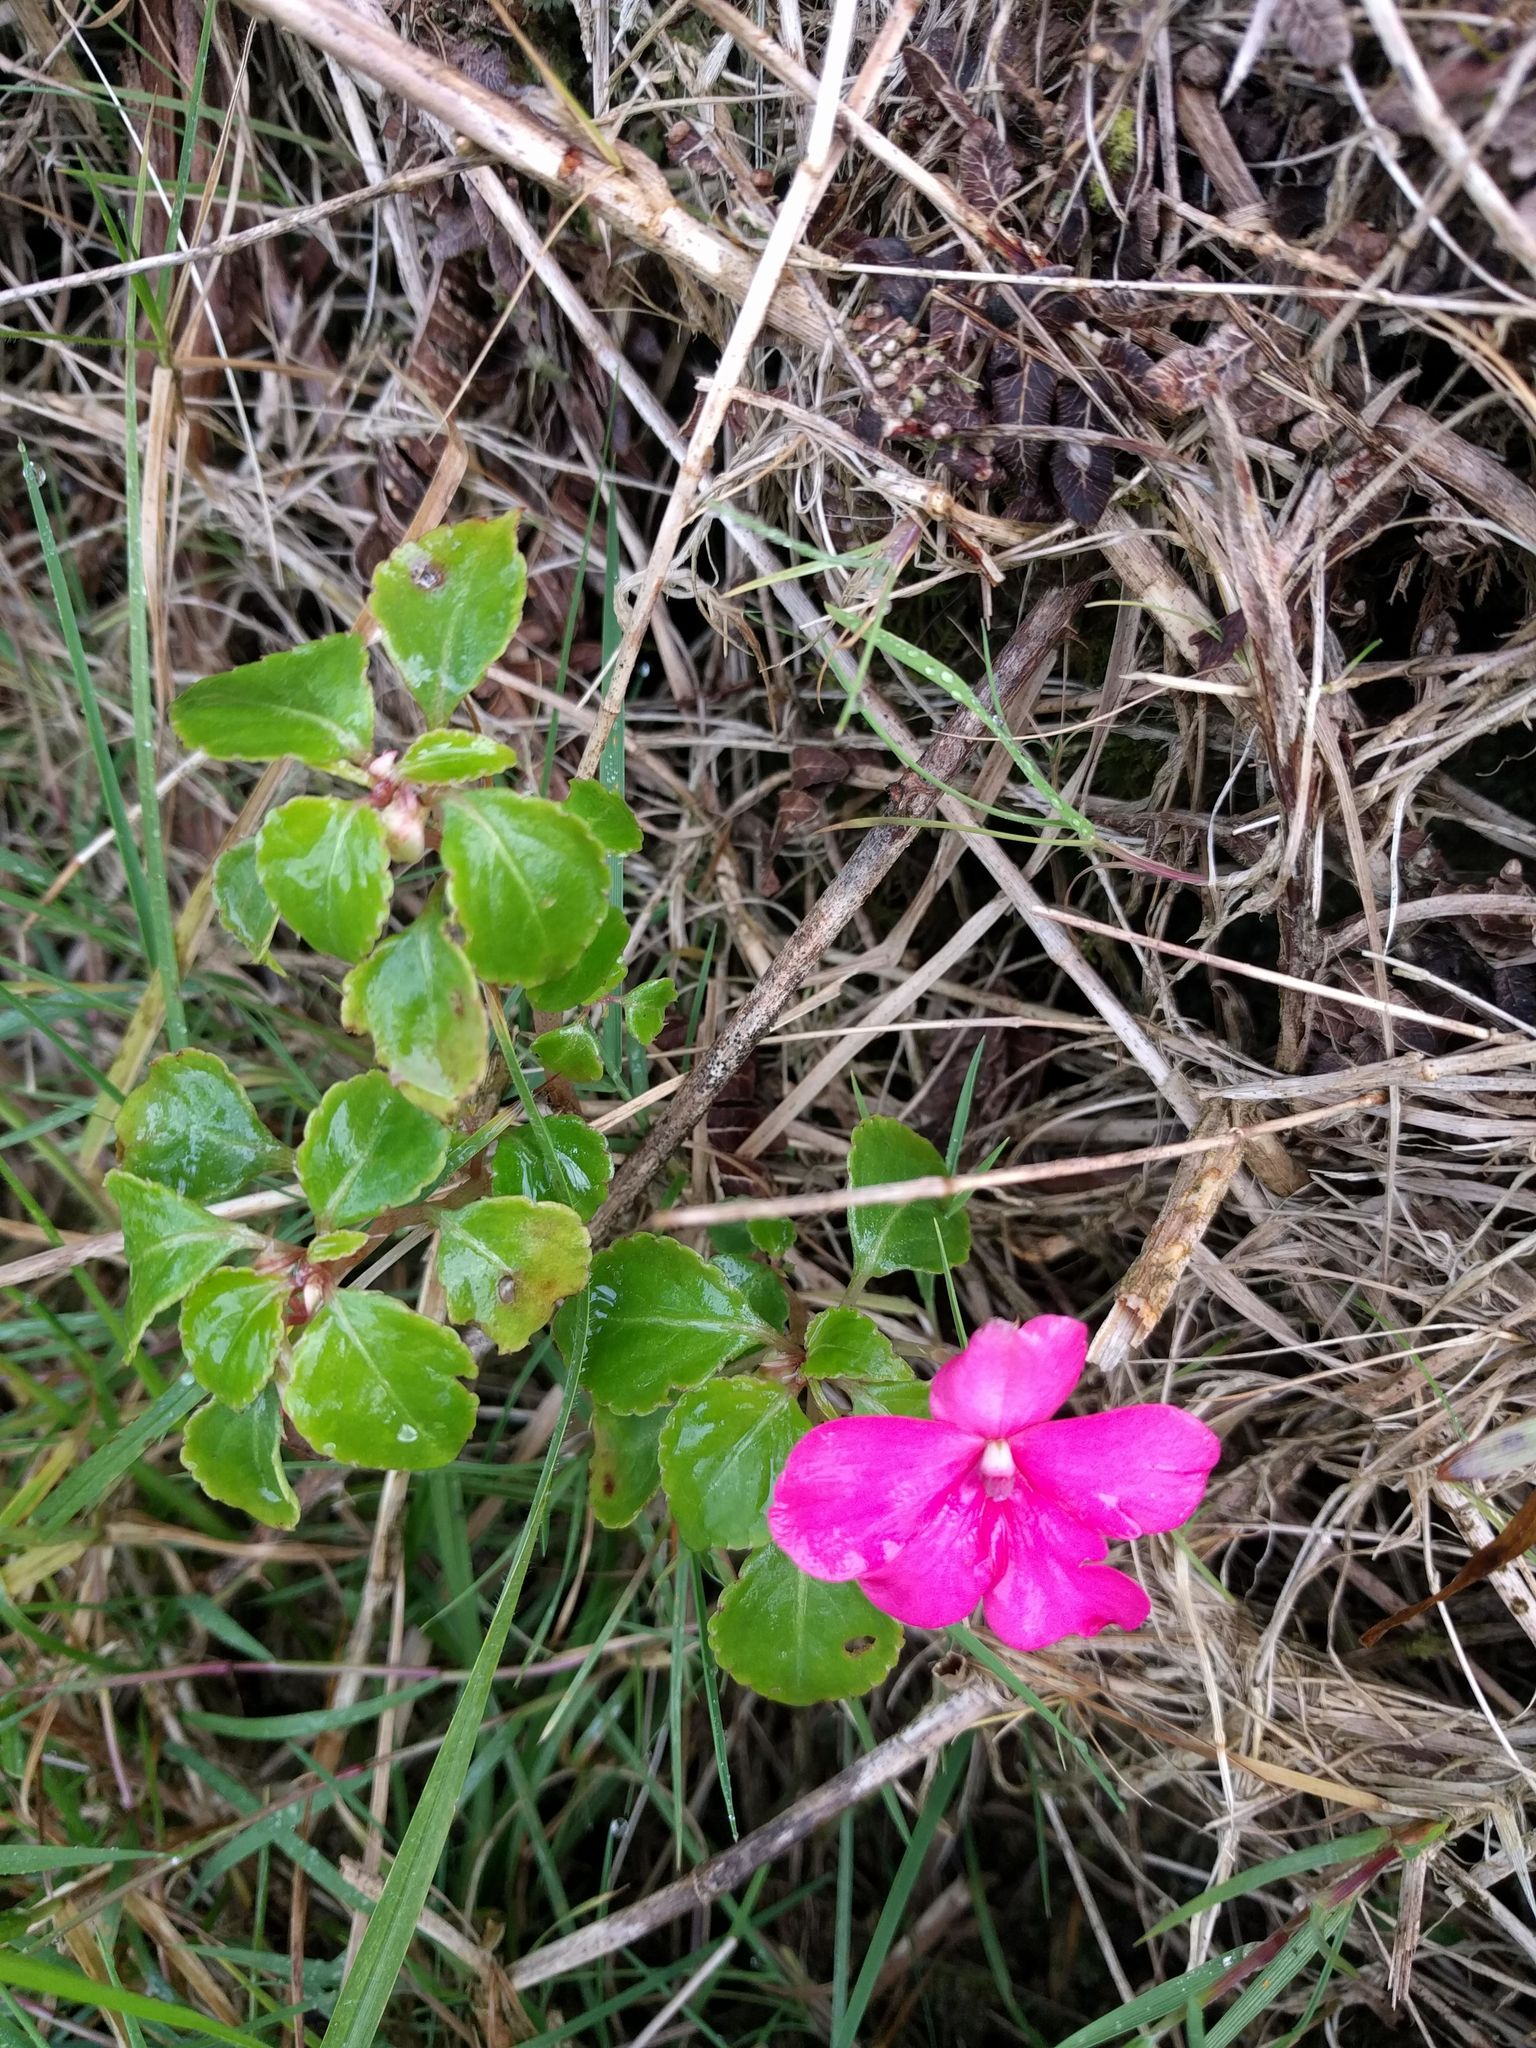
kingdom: Plantae
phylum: Tracheophyta
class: Magnoliopsida
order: Ericales
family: Balsaminaceae
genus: Impatiens
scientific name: Impatiens walleriana
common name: Buzzy lizzy
